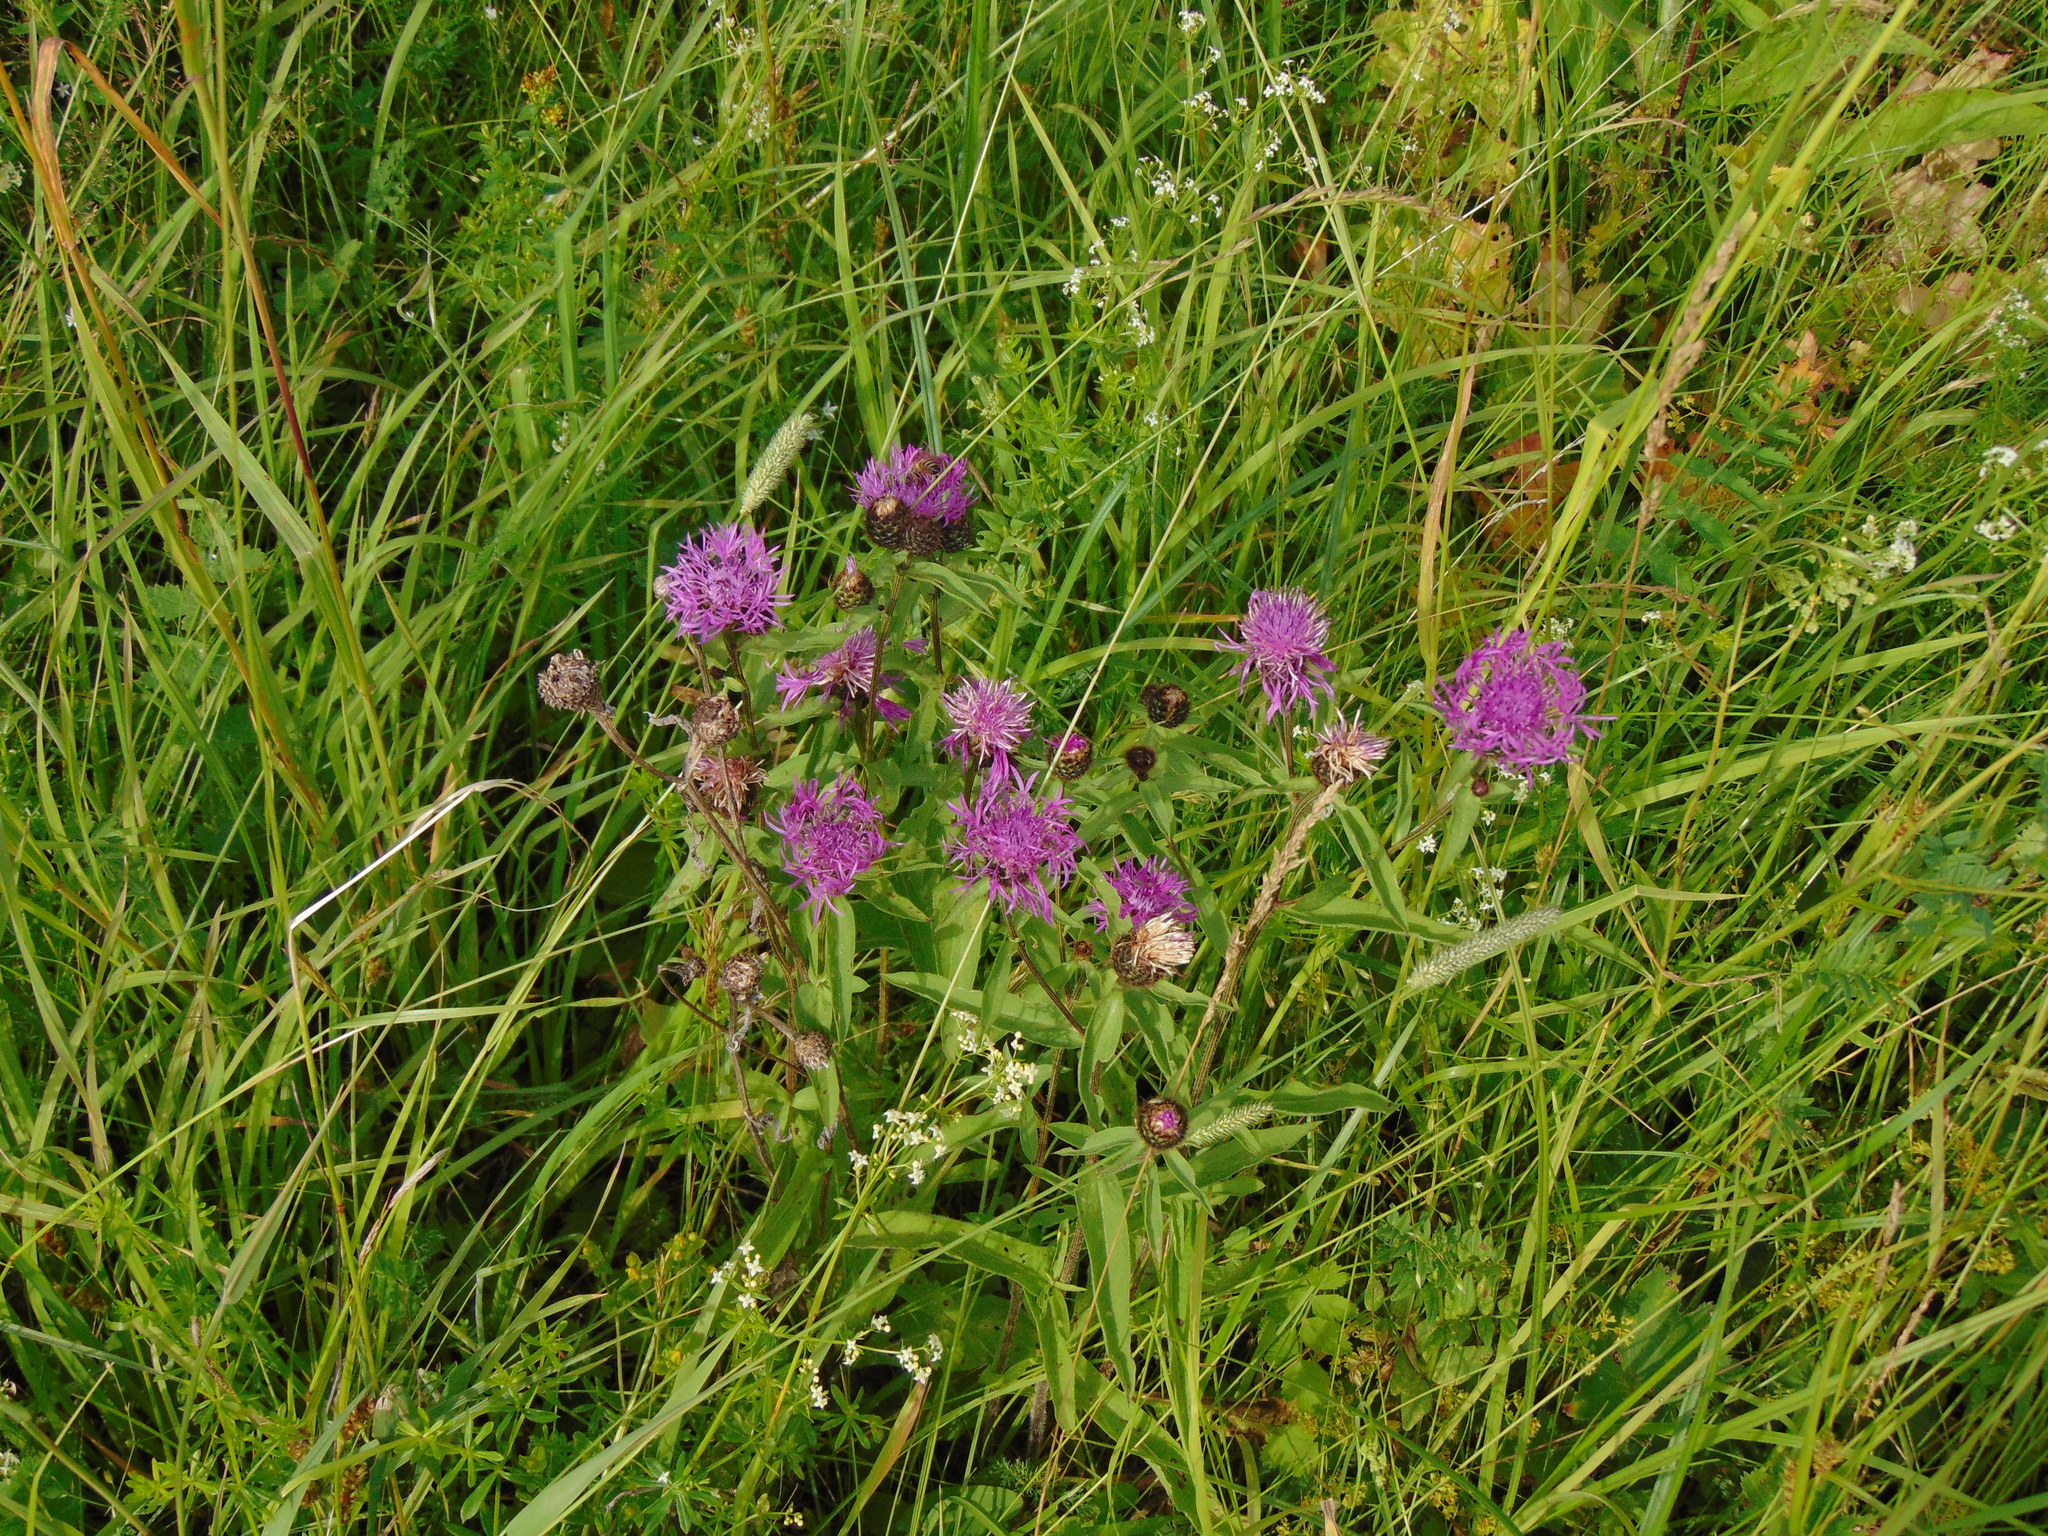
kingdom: Plantae
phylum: Tracheophyta
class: Magnoliopsida
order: Asterales
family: Asteraceae
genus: Centaurea
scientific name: Centaurea phrygia
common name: Wig knapweed
